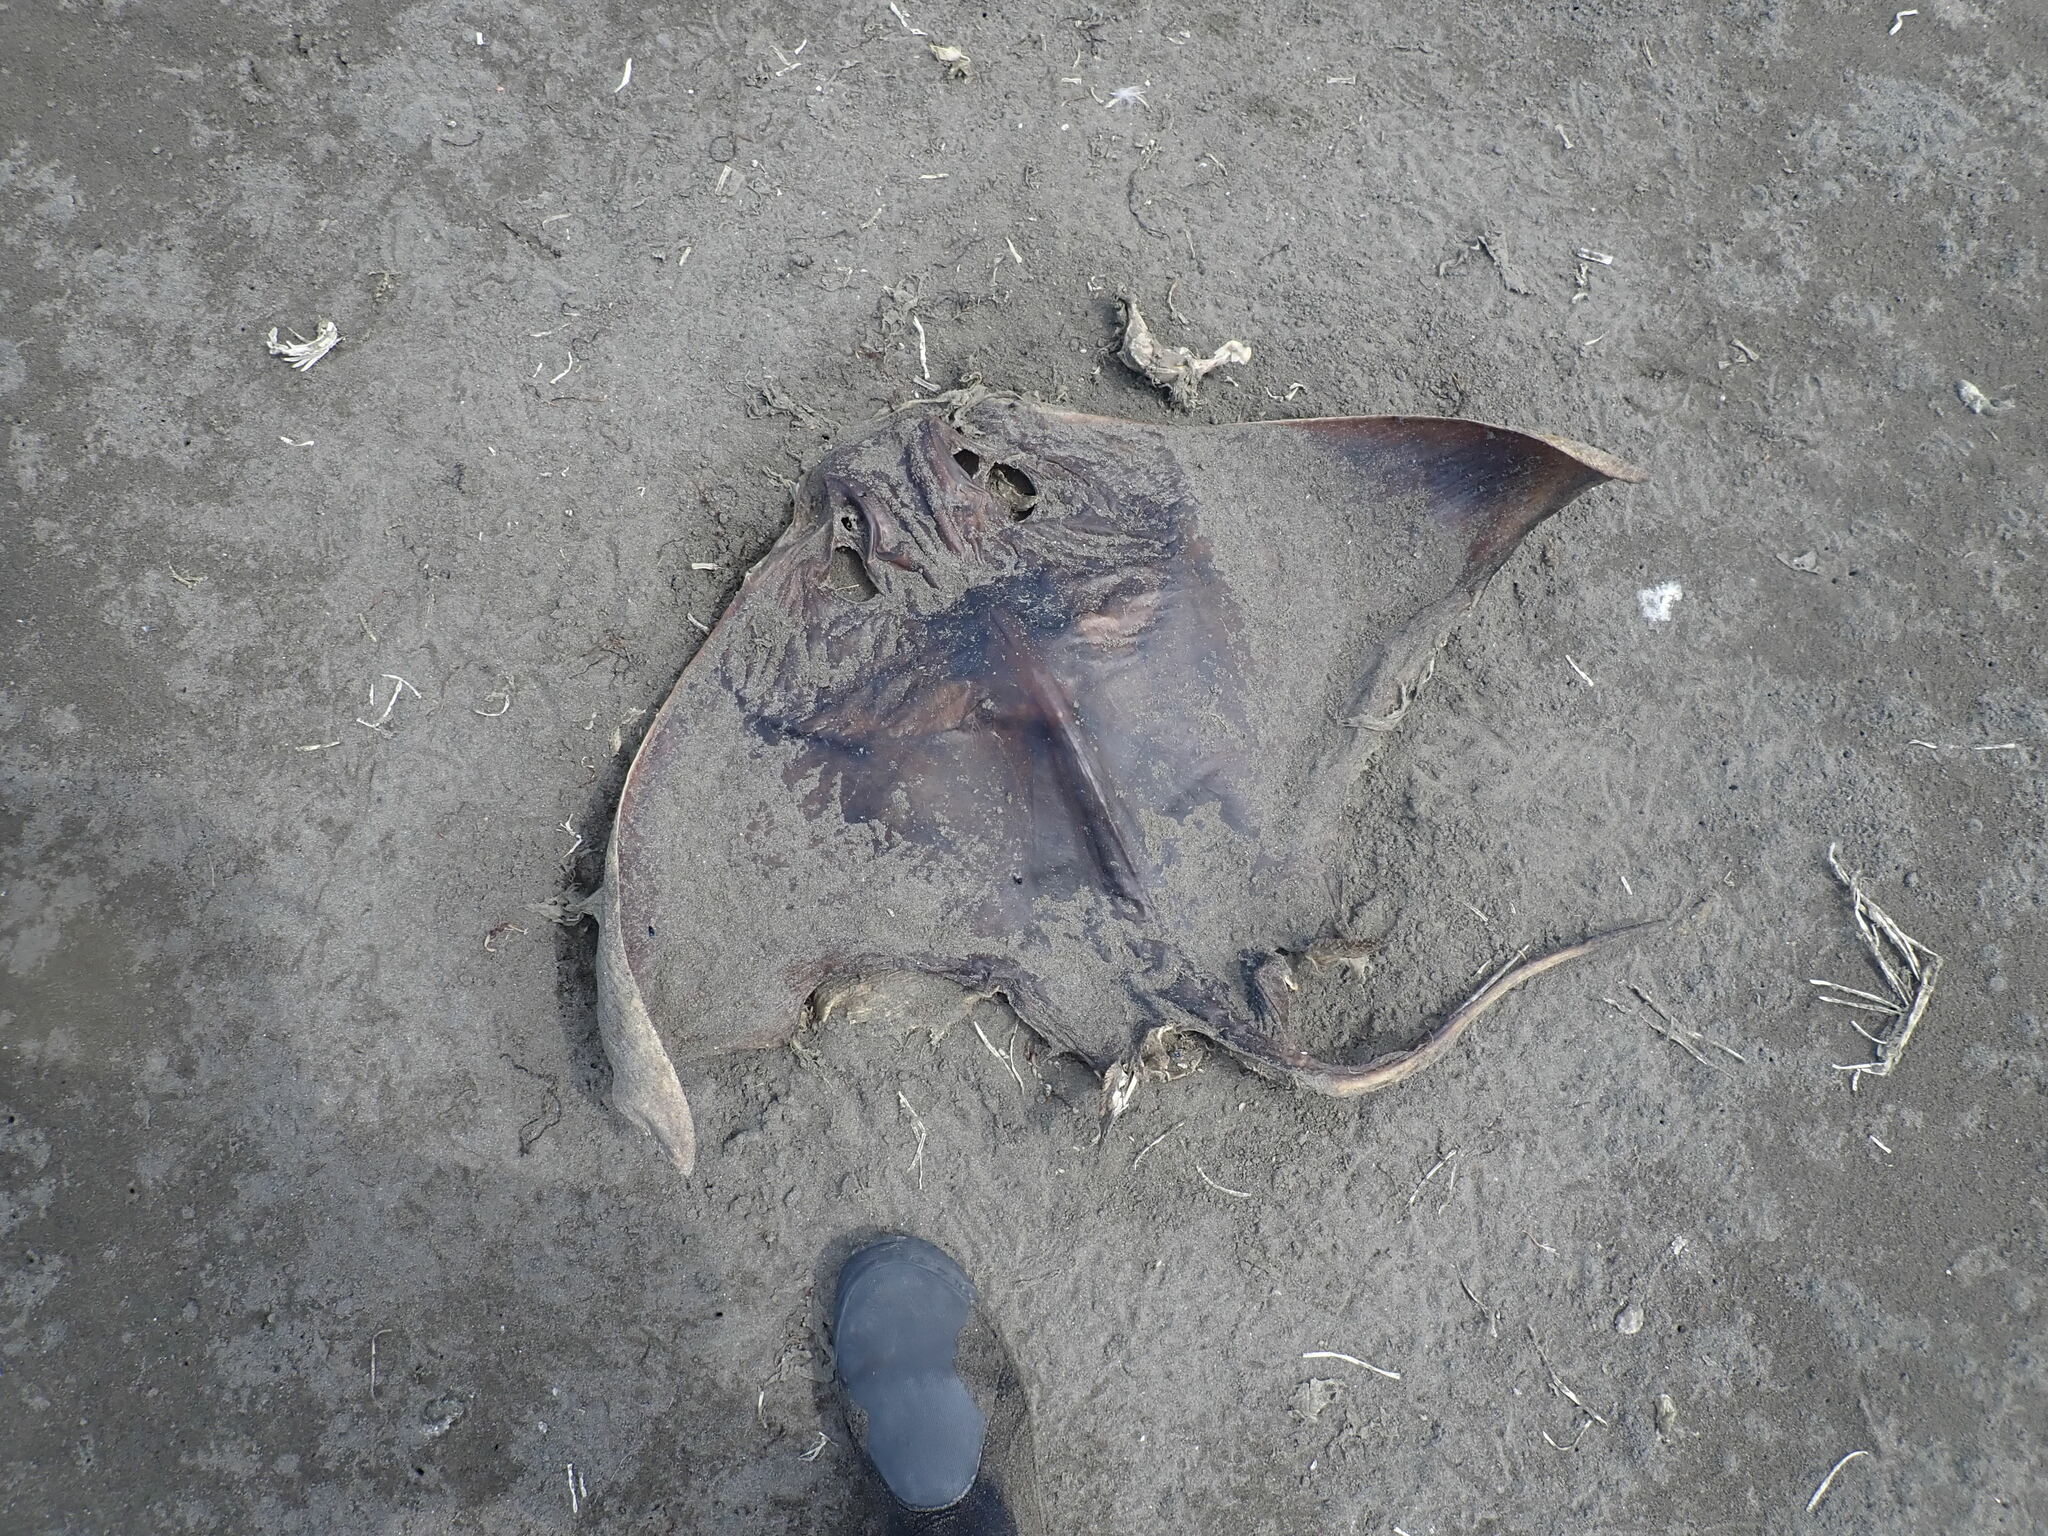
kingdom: Animalia
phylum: Chordata
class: Elasmobranchii
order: Myliobatiformes
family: Myliobatidae
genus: Myliobatis
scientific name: Myliobatis tenuicaudatus
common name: Eagle ray
